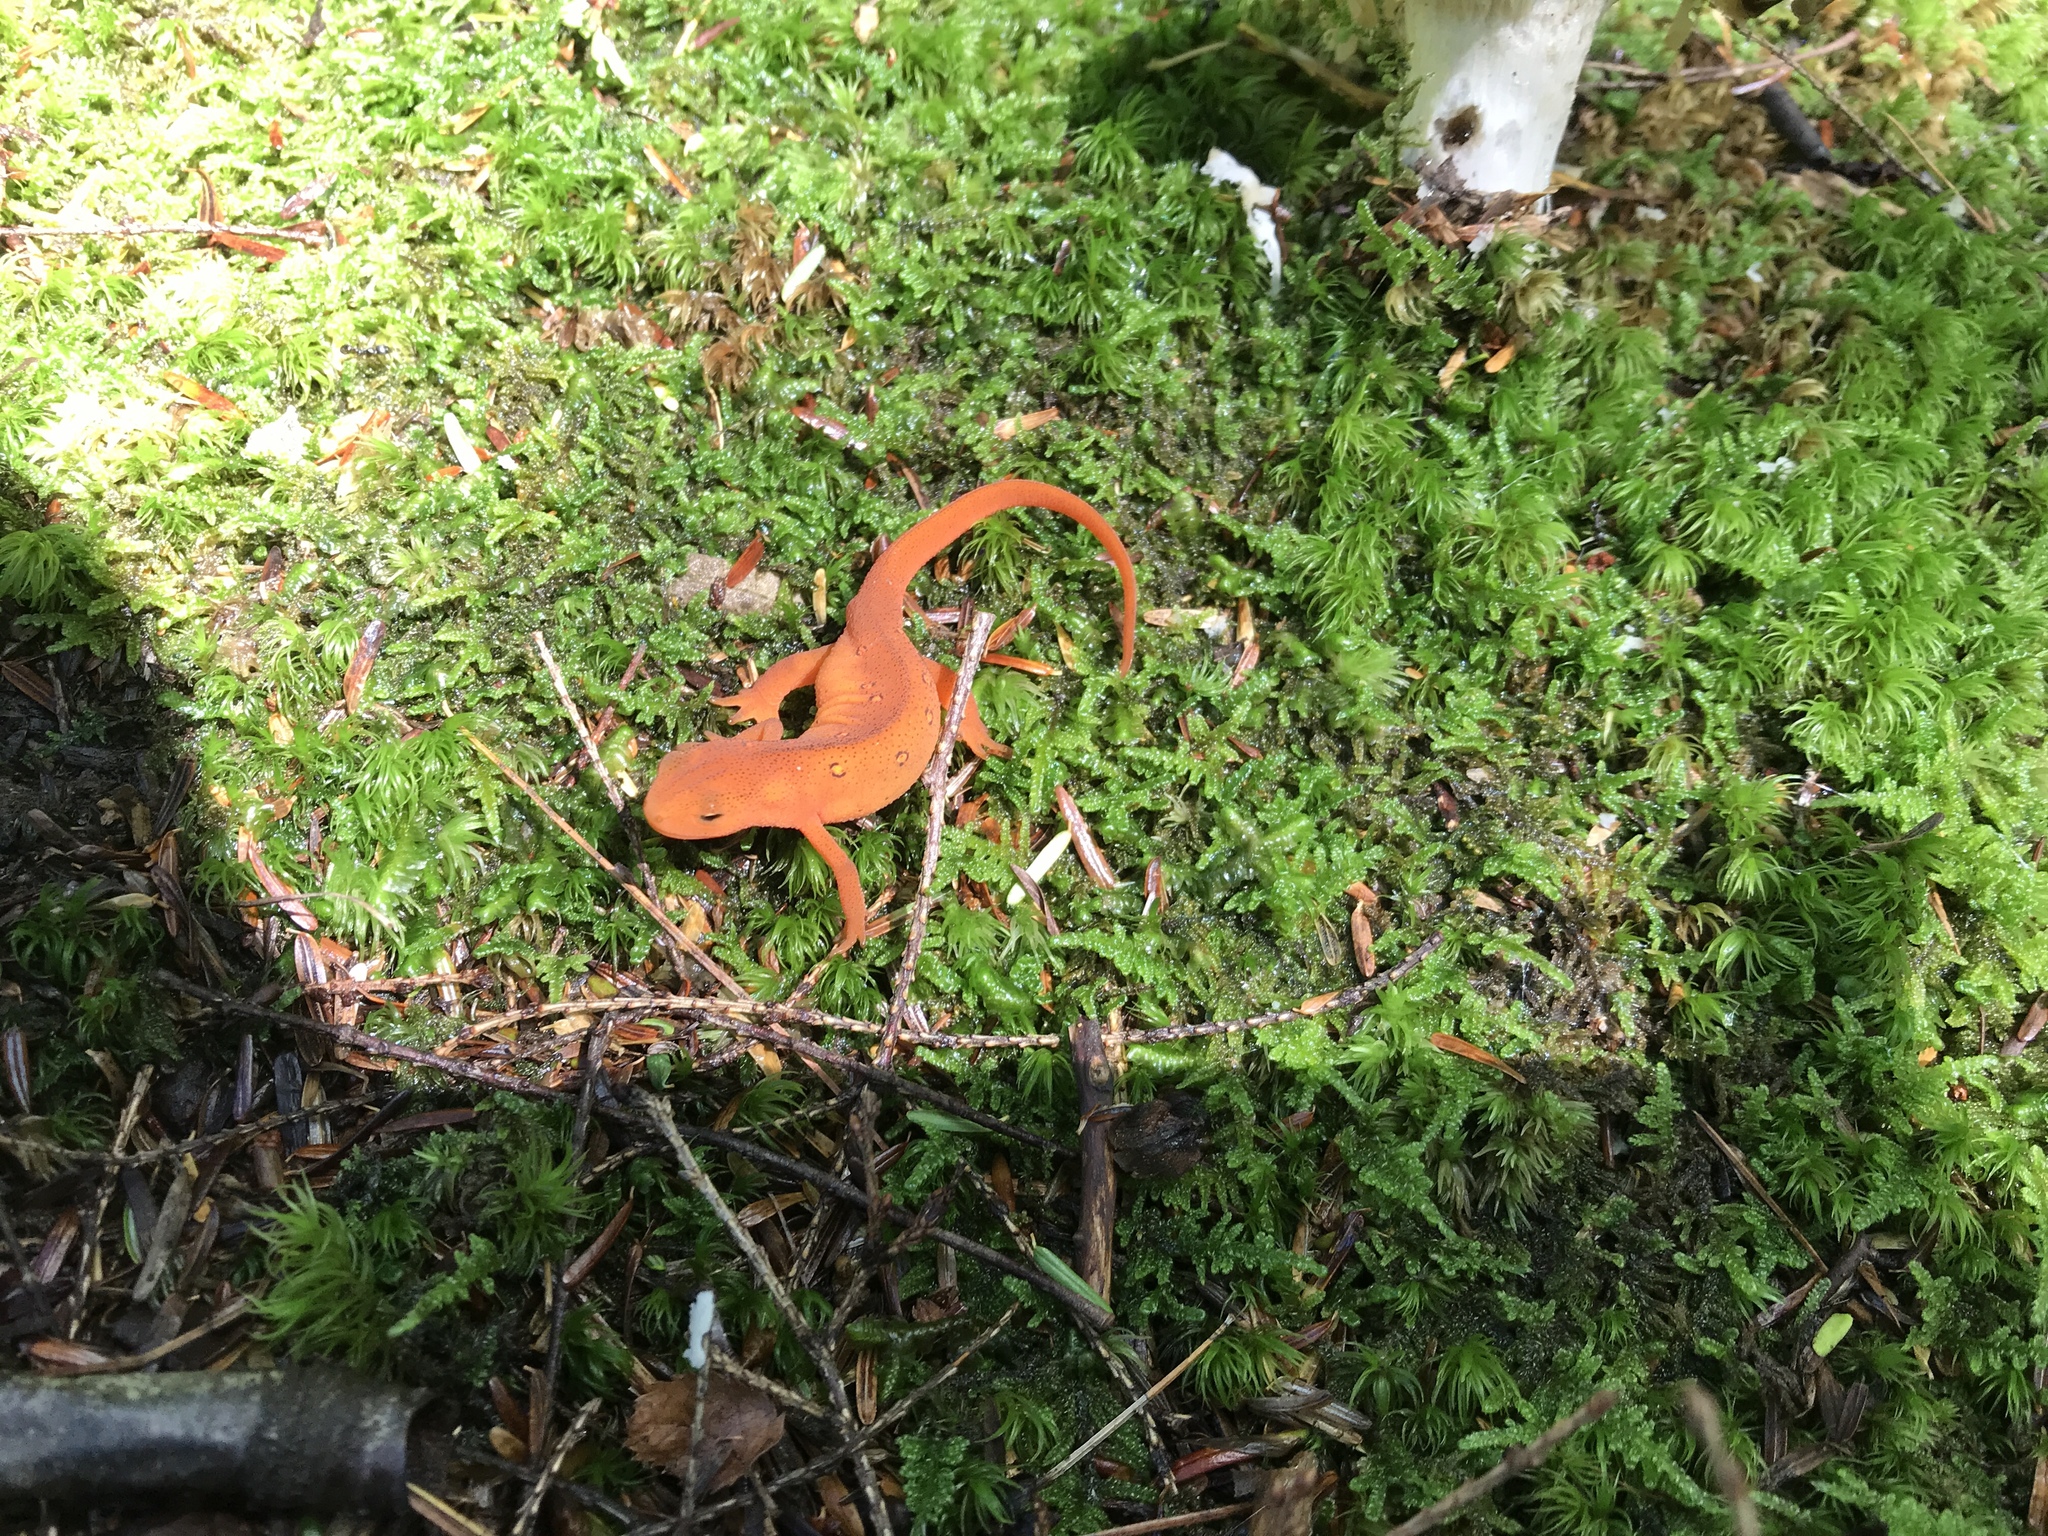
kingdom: Animalia
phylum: Chordata
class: Amphibia
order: Caudata
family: Salamandridae
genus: Notophthalmus
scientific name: Notophthalmus viridescens
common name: Eastern newt
